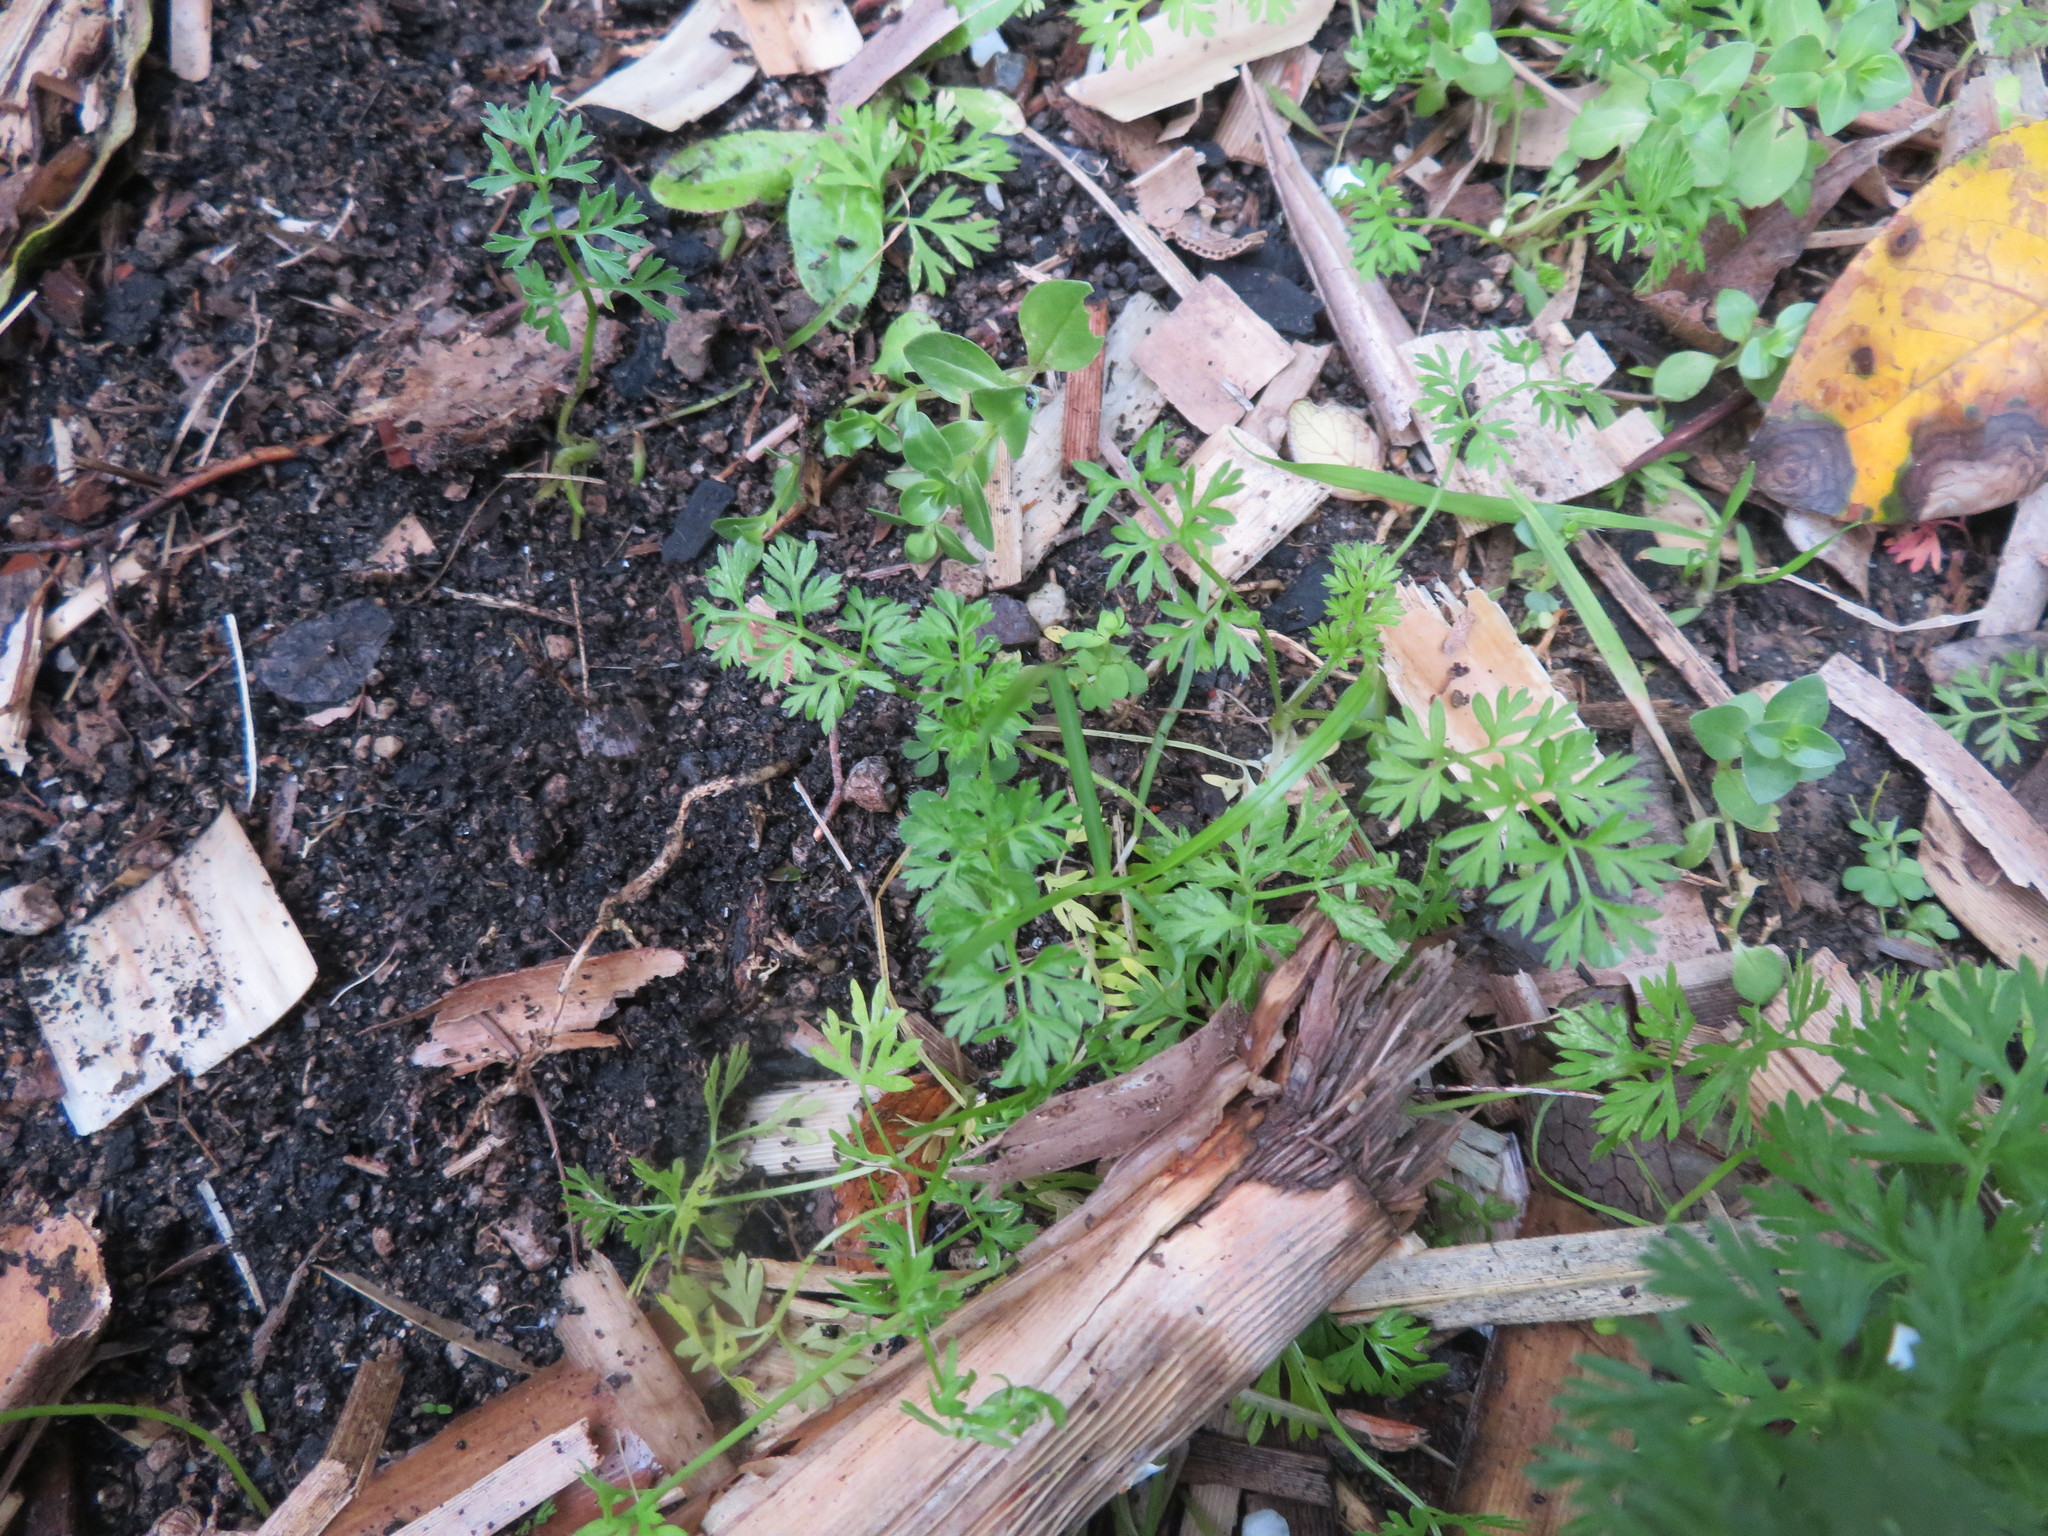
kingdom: Plantae
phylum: Tracheophyta
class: Magnoliopsida
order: Apiales
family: Apiaceae
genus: Daucus
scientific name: Daucus carota
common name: Wild carrot
